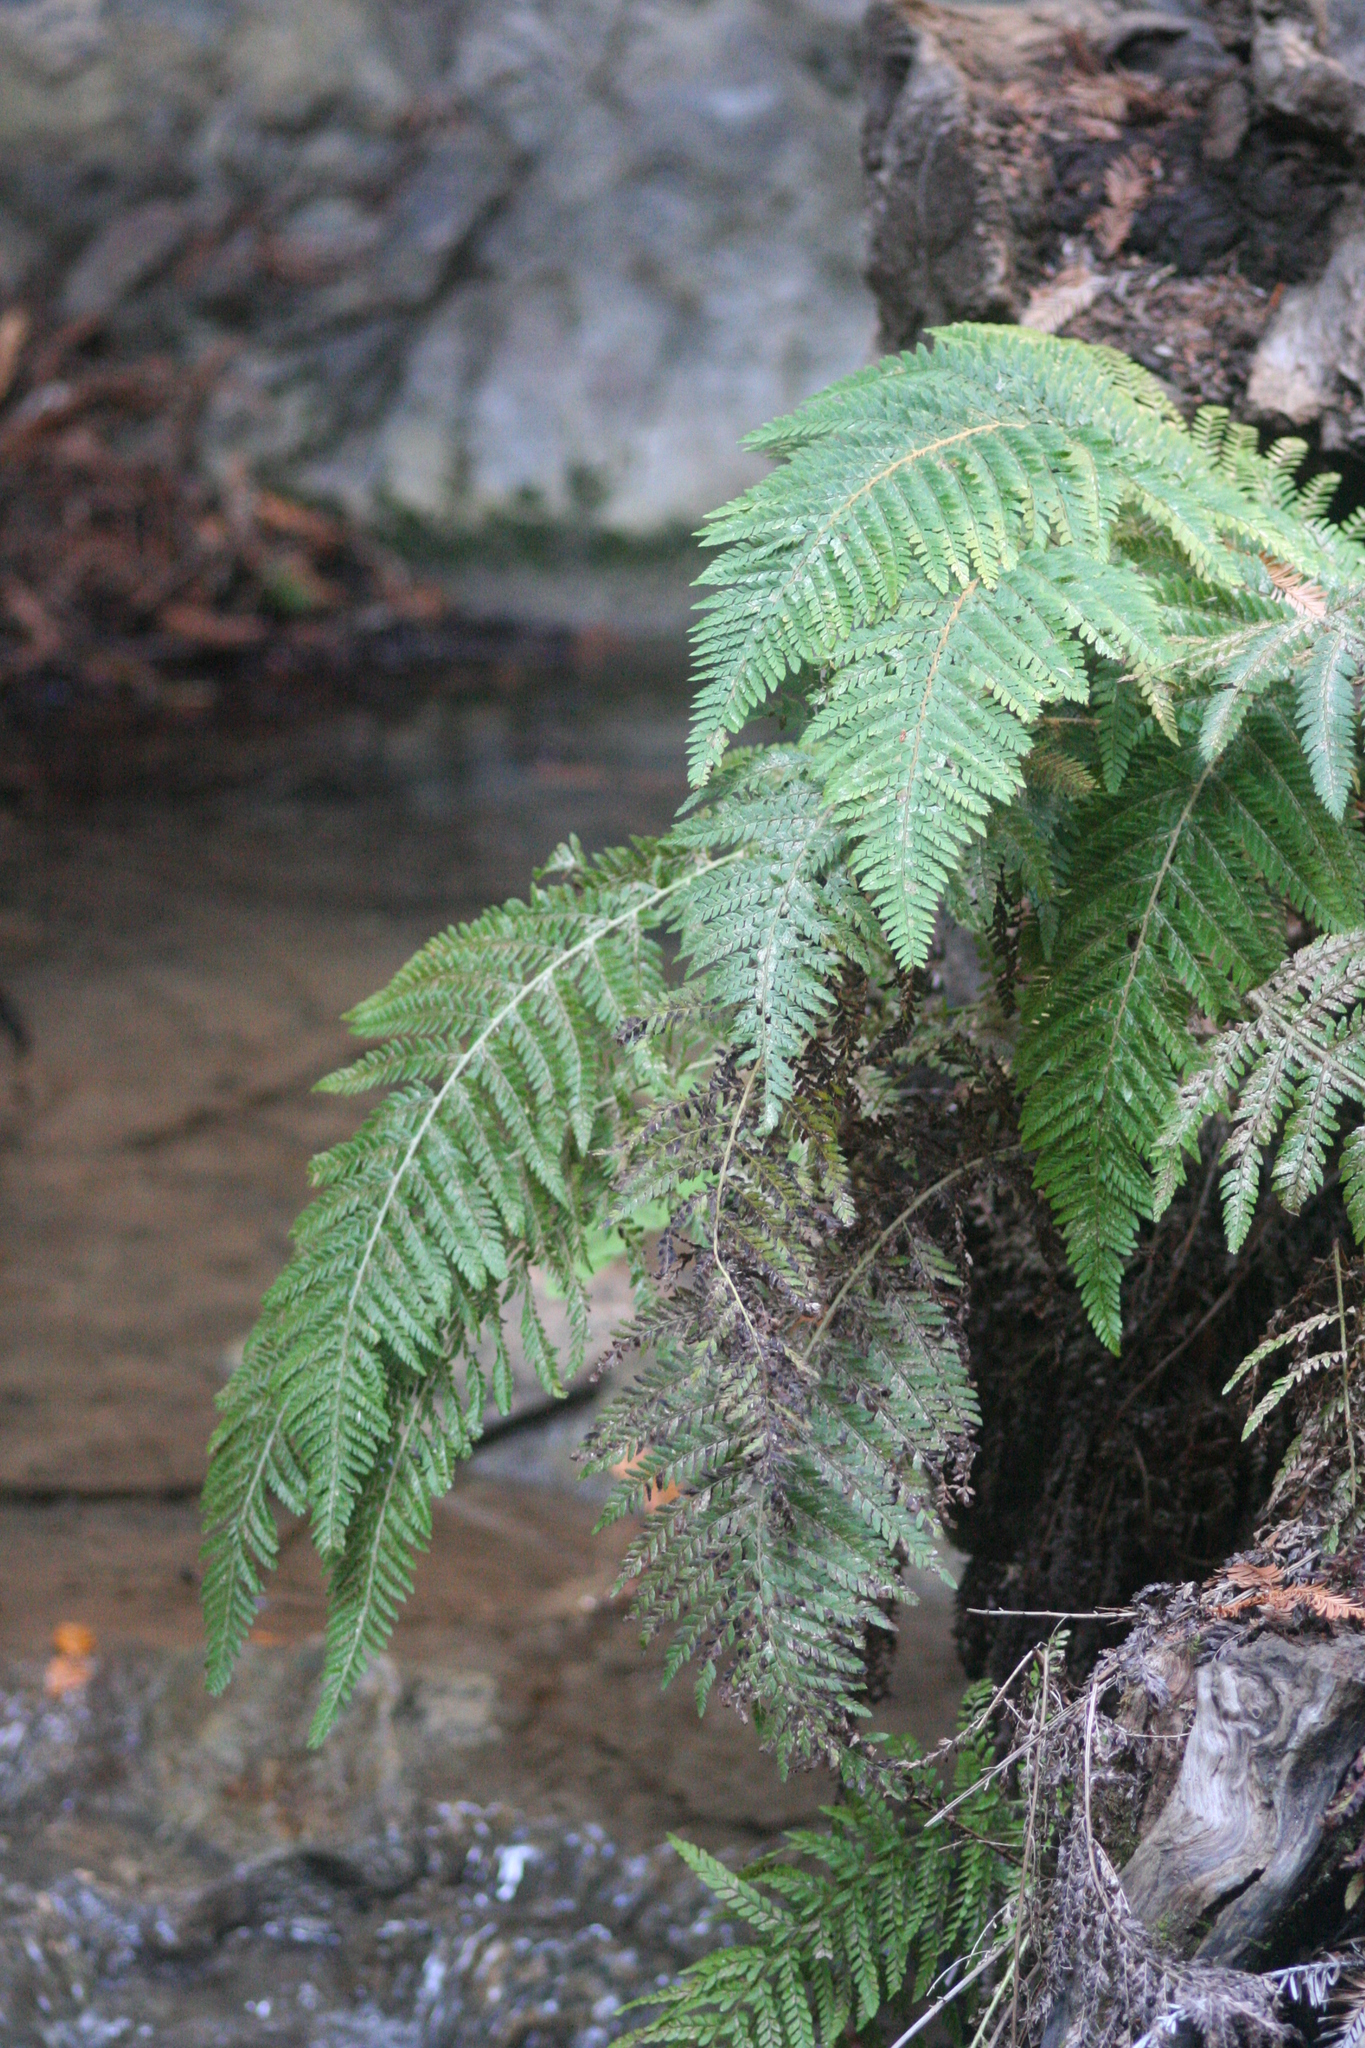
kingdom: Plantae
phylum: Tracheophyta
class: Polypodiopsida
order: Polypodiales
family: Dryopteridaceae
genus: Polystichum
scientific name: Polystichum dudleyi
